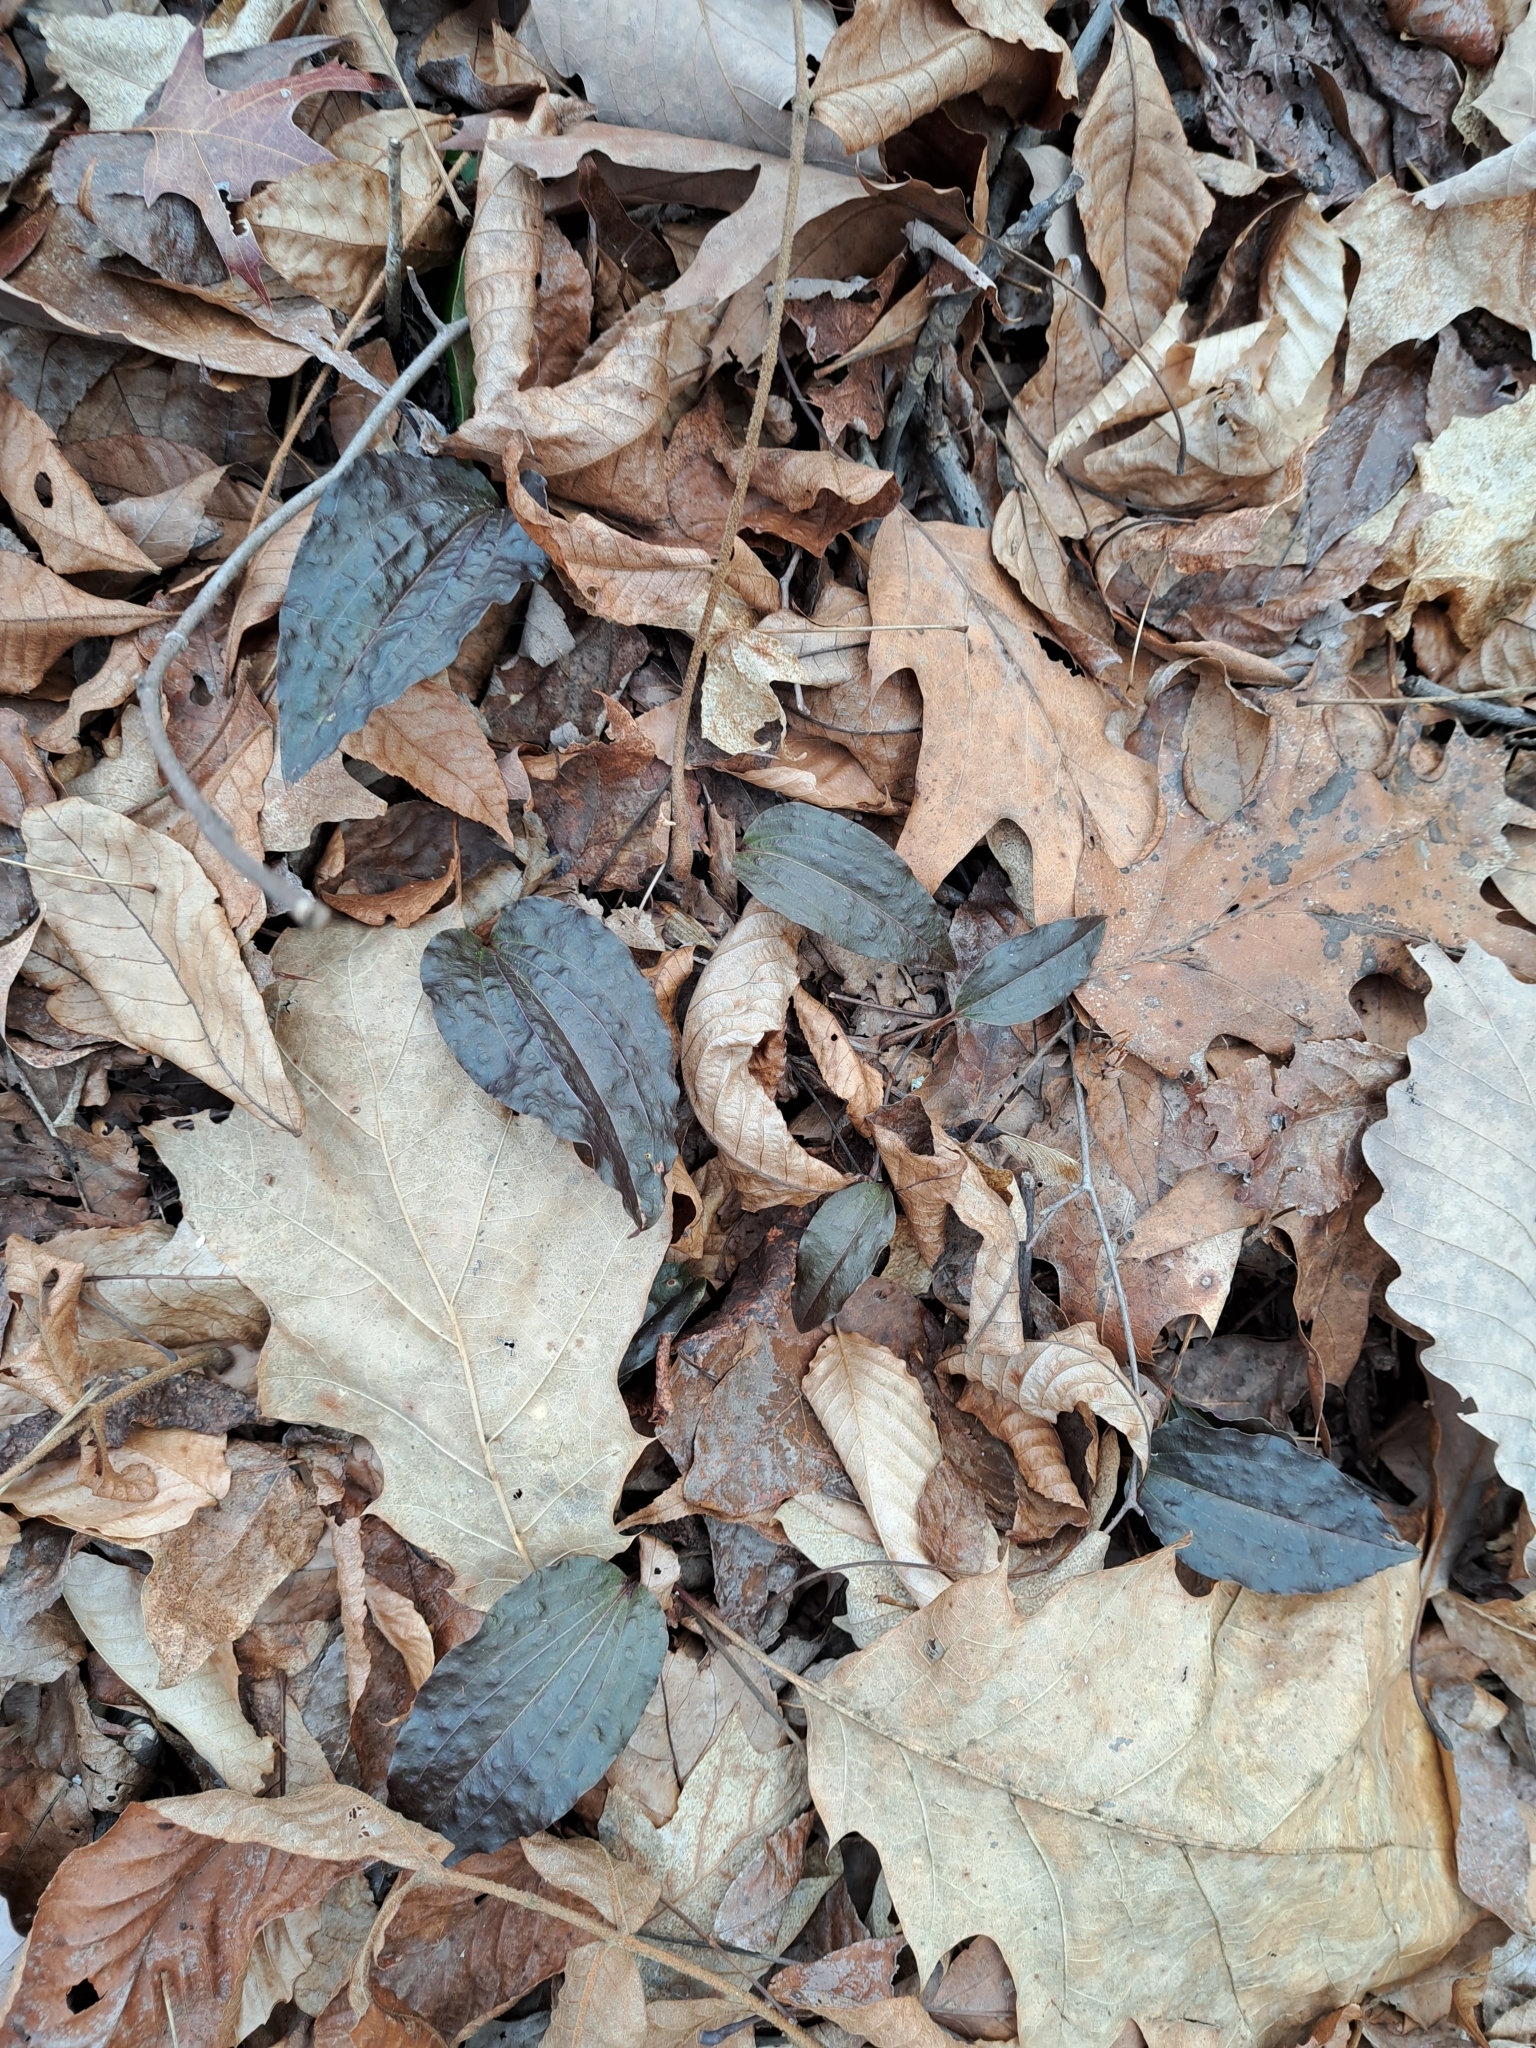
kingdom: Plantae
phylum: Tracheophyta
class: Liliopsida
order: Asparagales
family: Orchidaceae
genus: Tipularia
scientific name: Tipularia discolor
